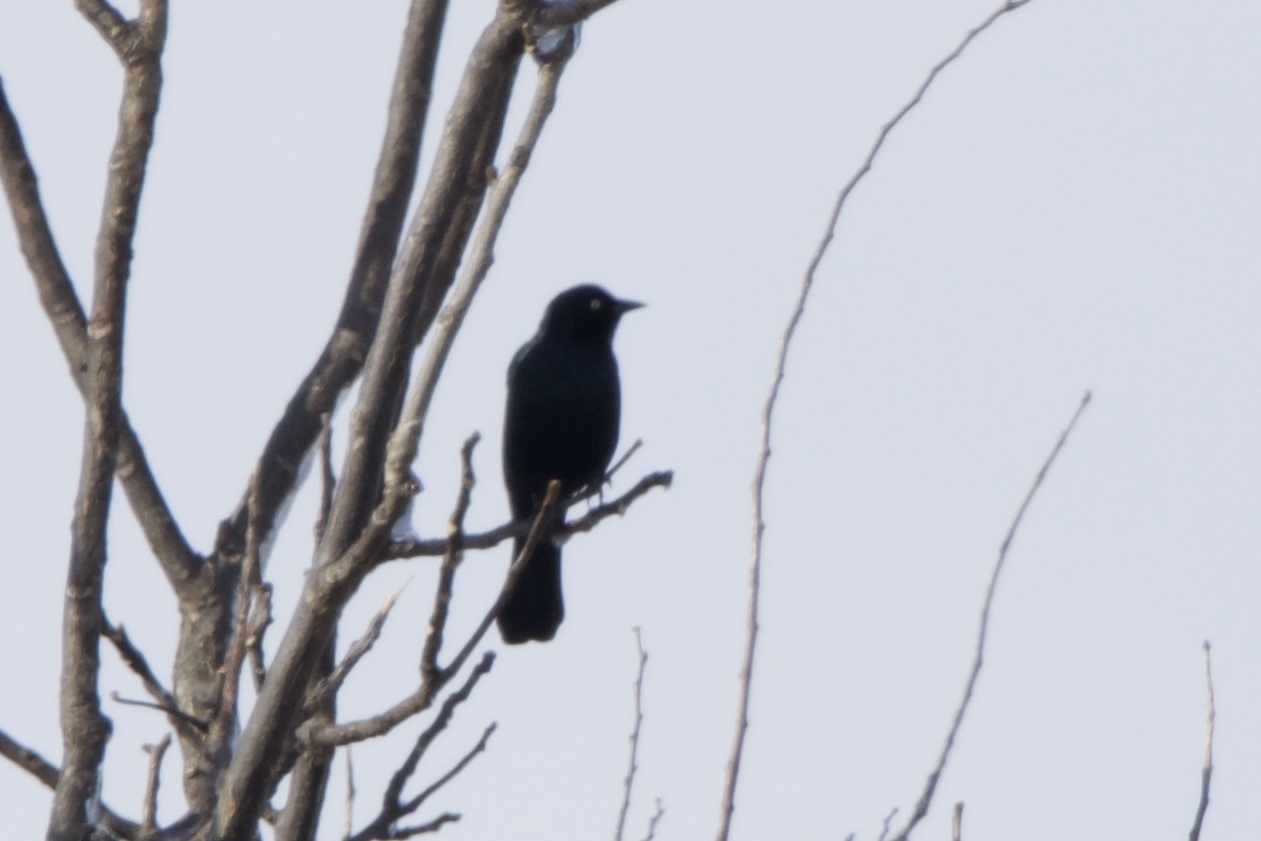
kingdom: Animalia
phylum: Chordata
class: Aves
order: Passeriformes
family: Icteridae
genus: Euphagus
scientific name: Euphagus cyanocephalus
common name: Brewer's blackbird
